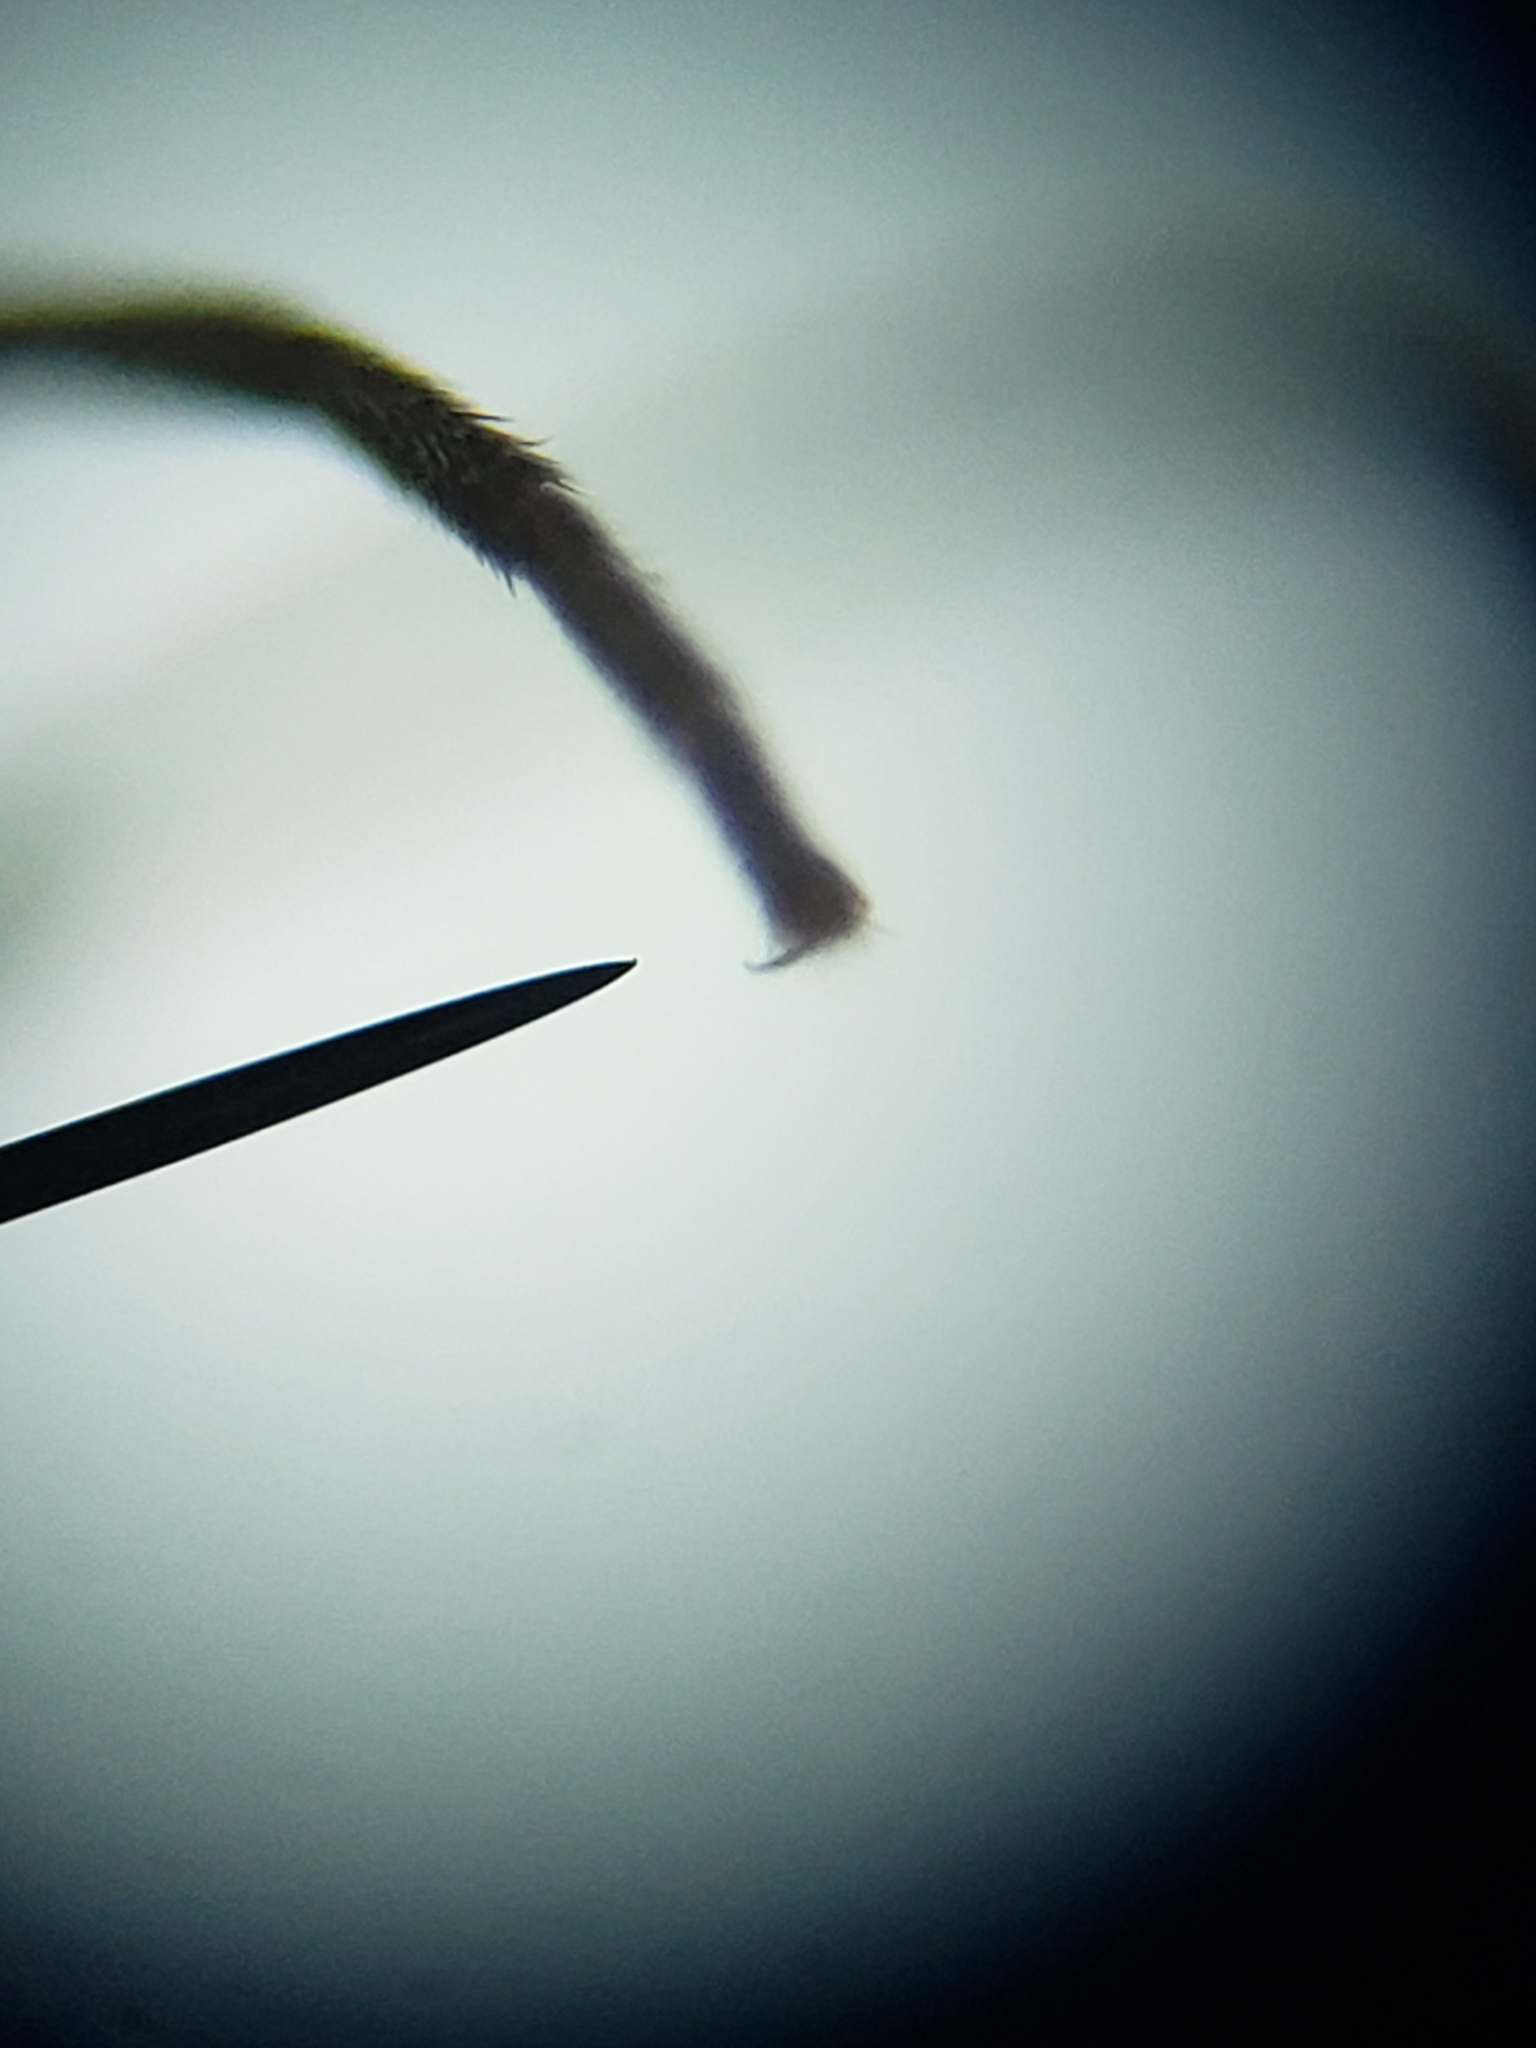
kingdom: Animalia
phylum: Arthropoda
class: Insecta
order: Diptera
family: Sciaridae
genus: Bradysia
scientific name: Bradysia
